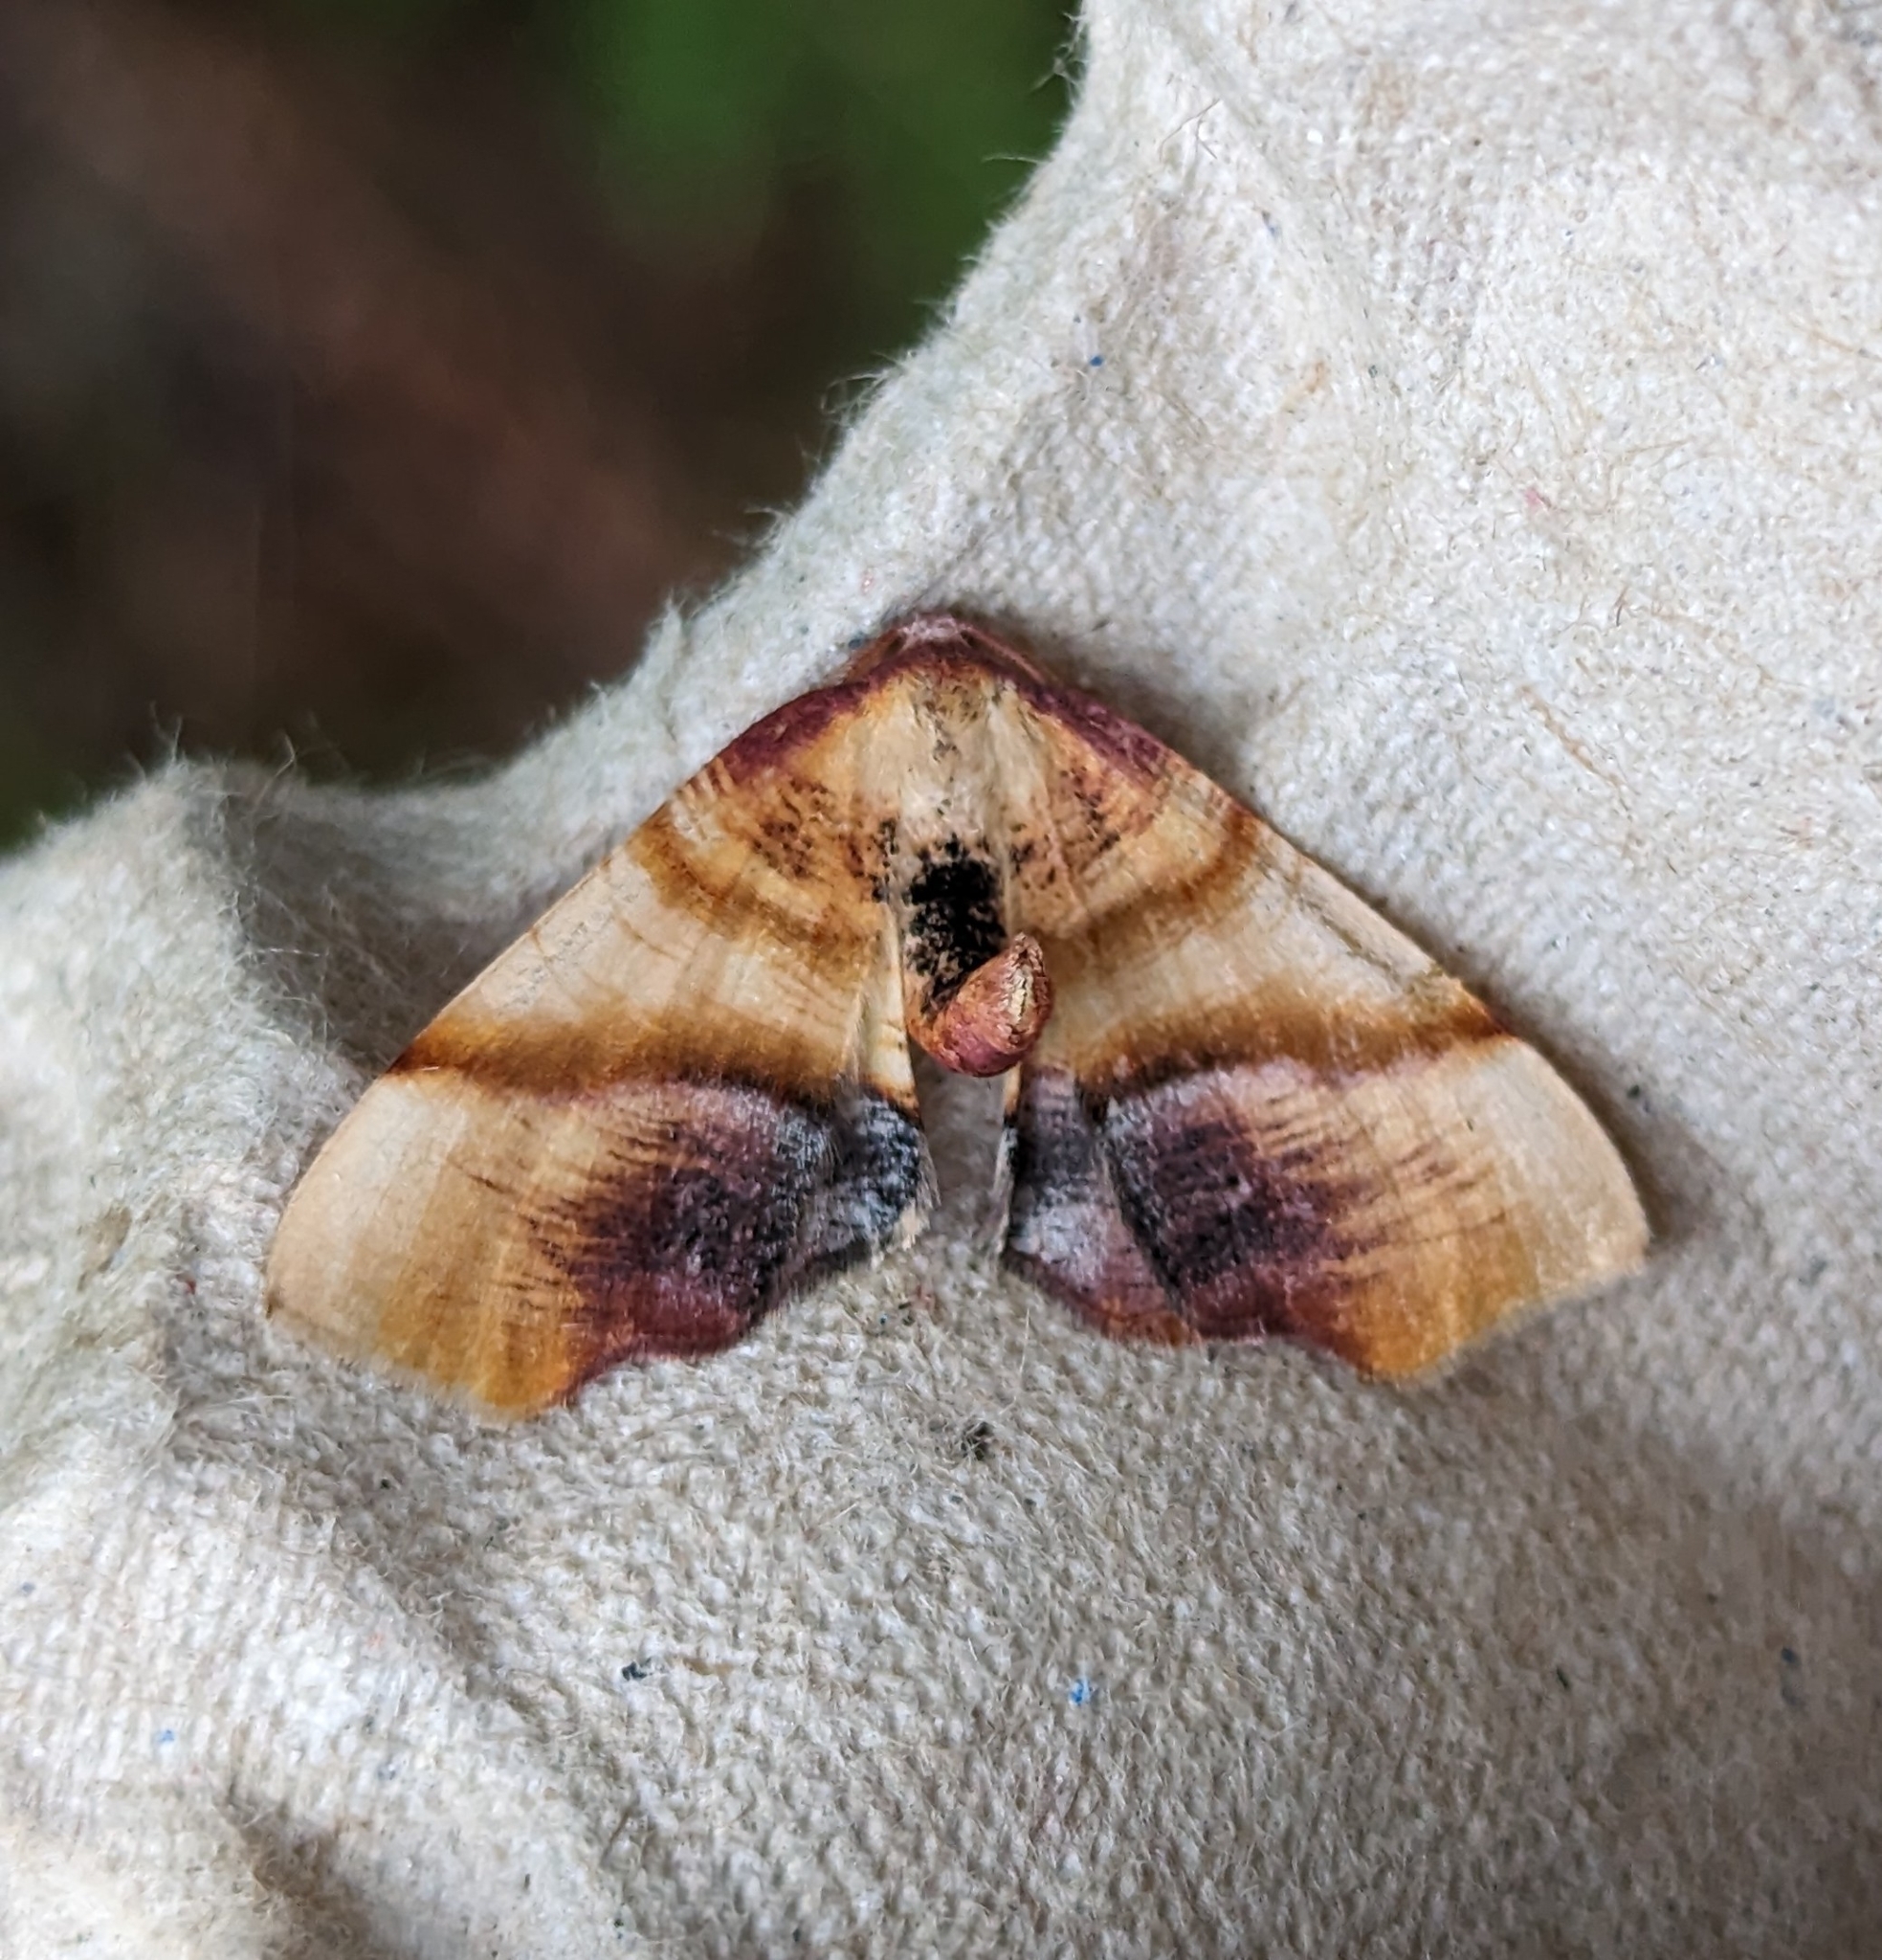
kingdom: Animalia
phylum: Arthropoda
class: Insecta
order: Lepidoptera
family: Geometridae
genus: Plagodis
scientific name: Plagodis phlogosaria
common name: Straight-lined plagodis
